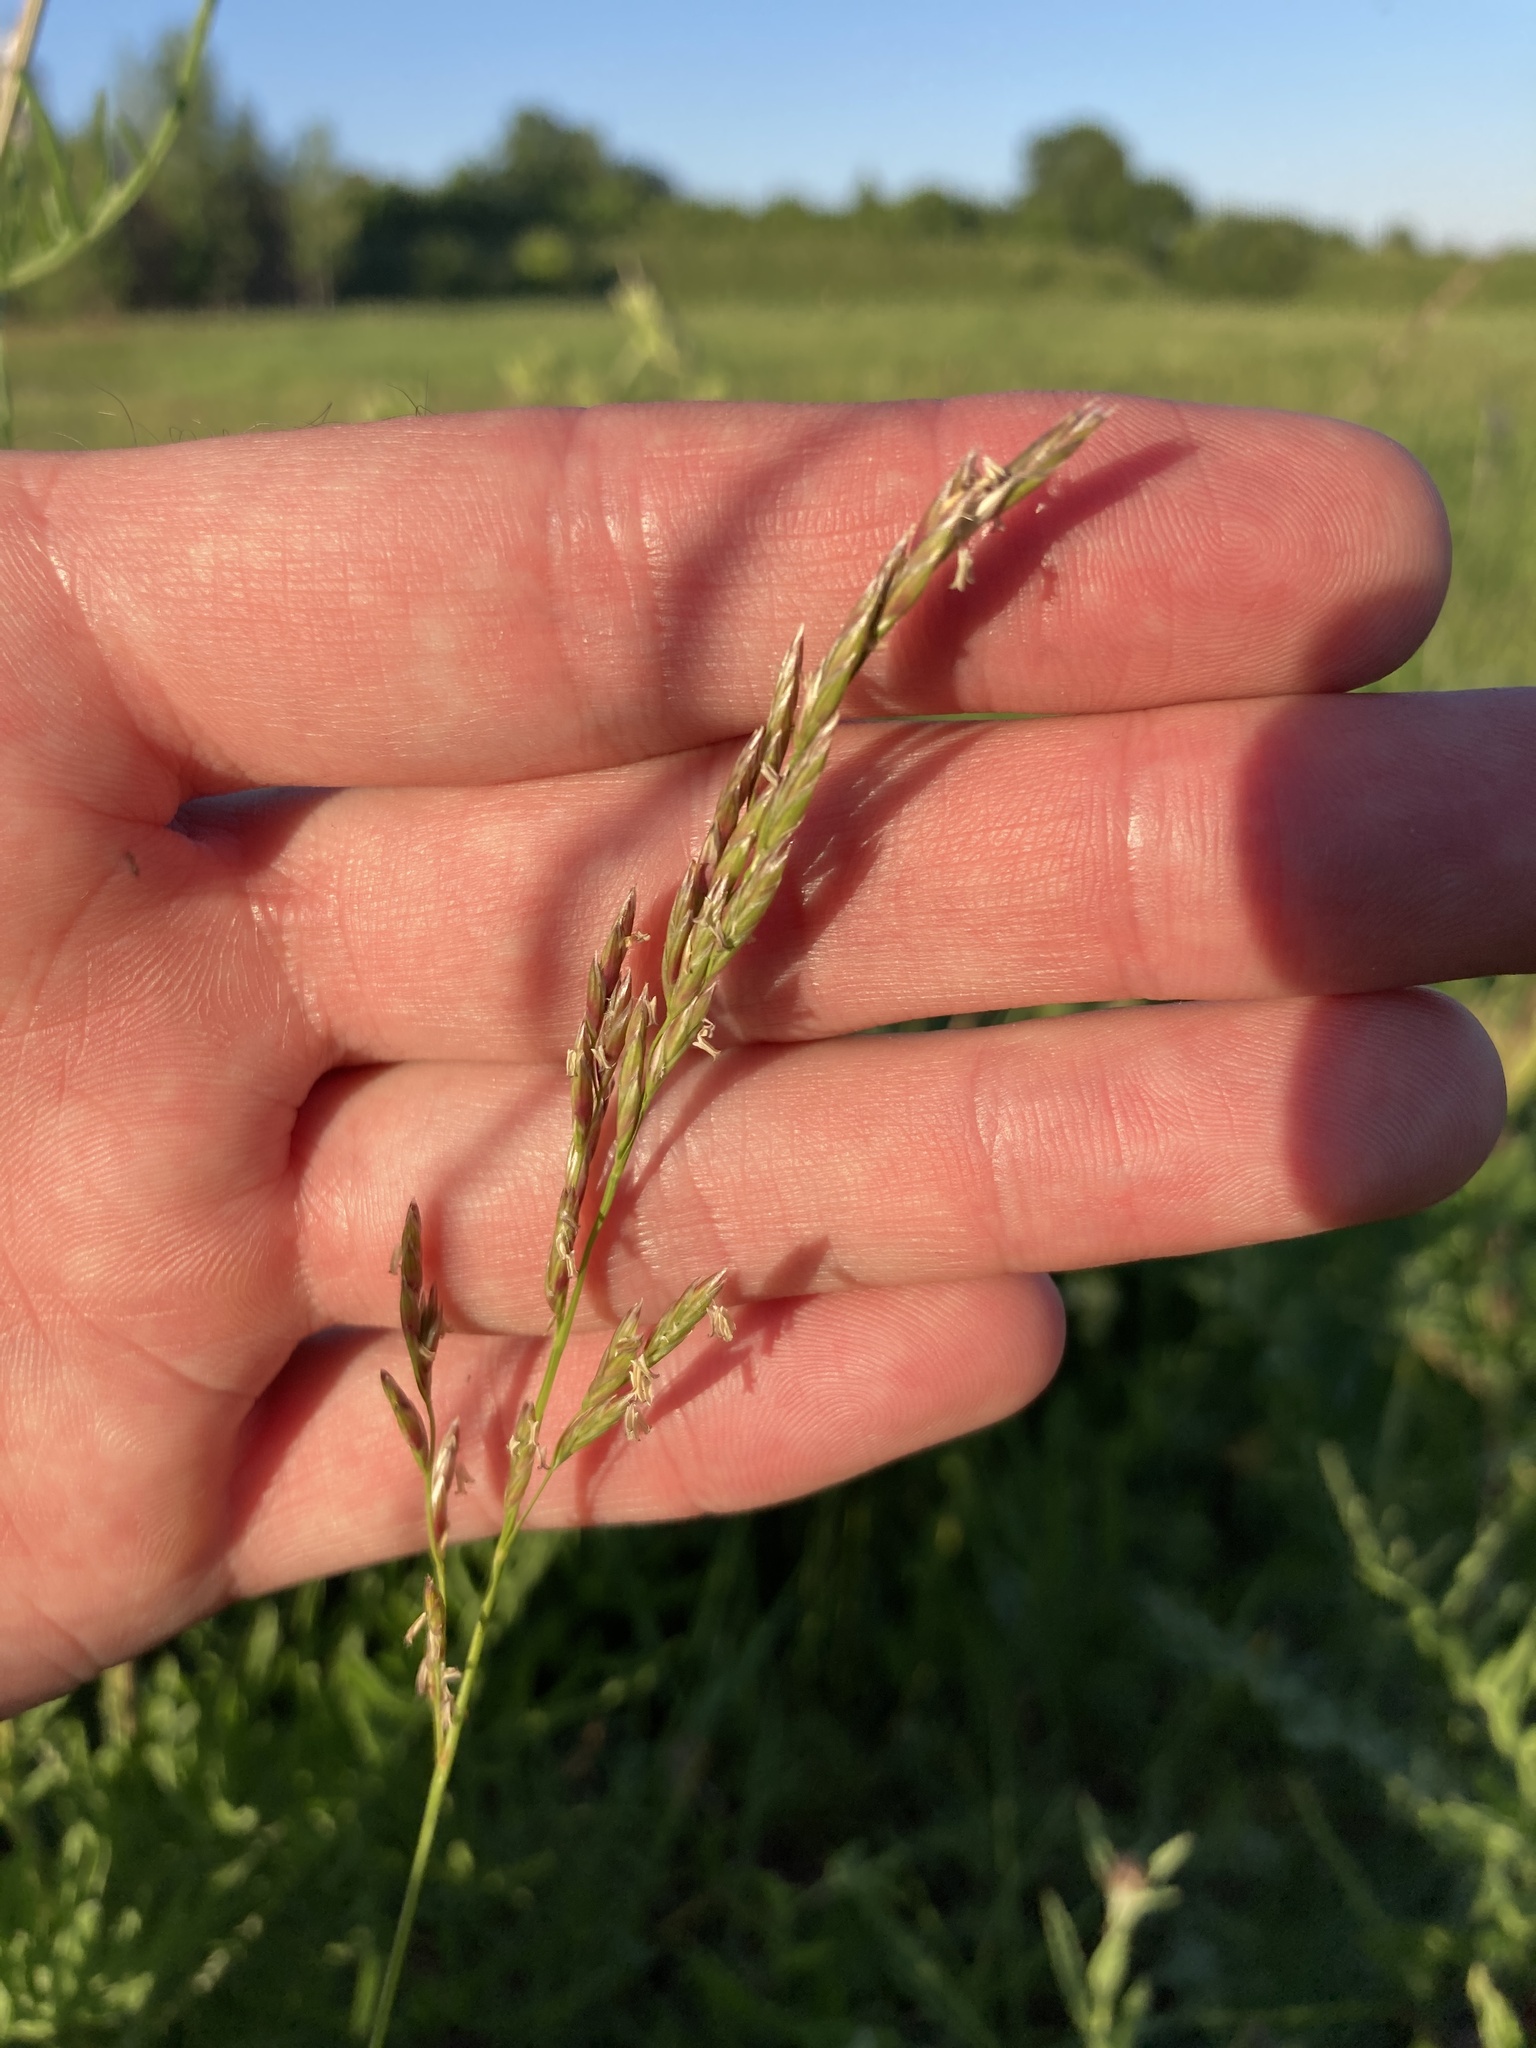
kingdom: Plantae
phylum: Tracheophyta
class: Liliopsida
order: Poales
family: Poaceae
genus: Lolium
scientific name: Lolium pratense
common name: Dover grass
